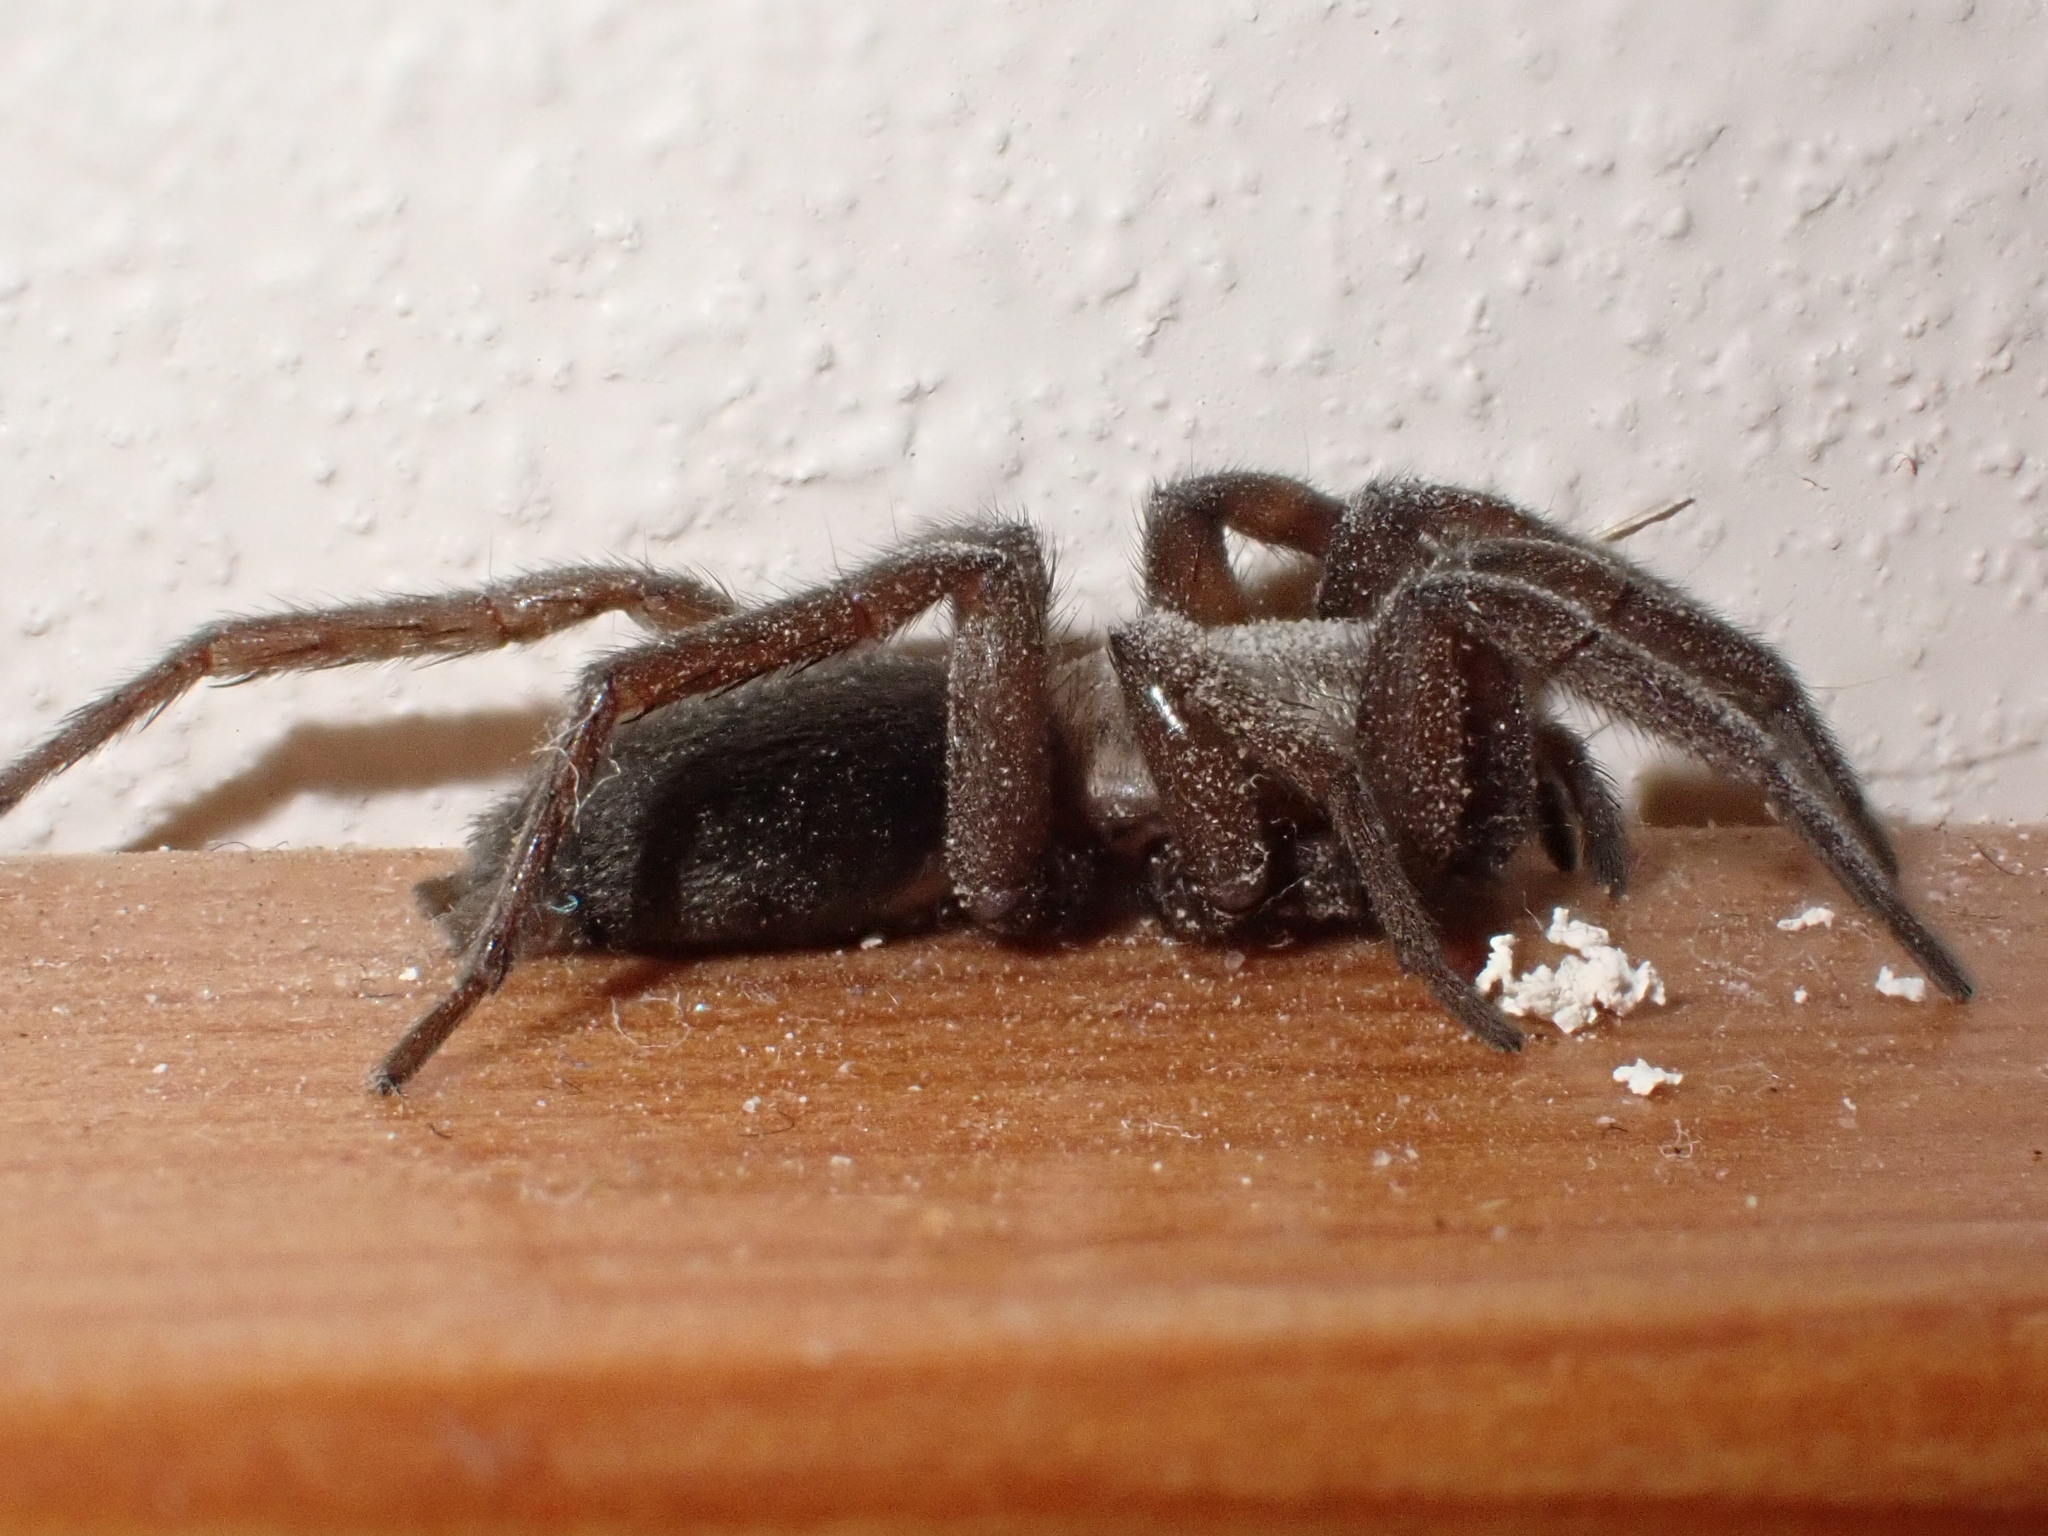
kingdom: Animalia
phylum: Arthropoda
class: Arachnida
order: Araneae
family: Gnaphosidae
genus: Scotophaeus
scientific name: Scotophaeus blackwalli
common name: Mouse spider
